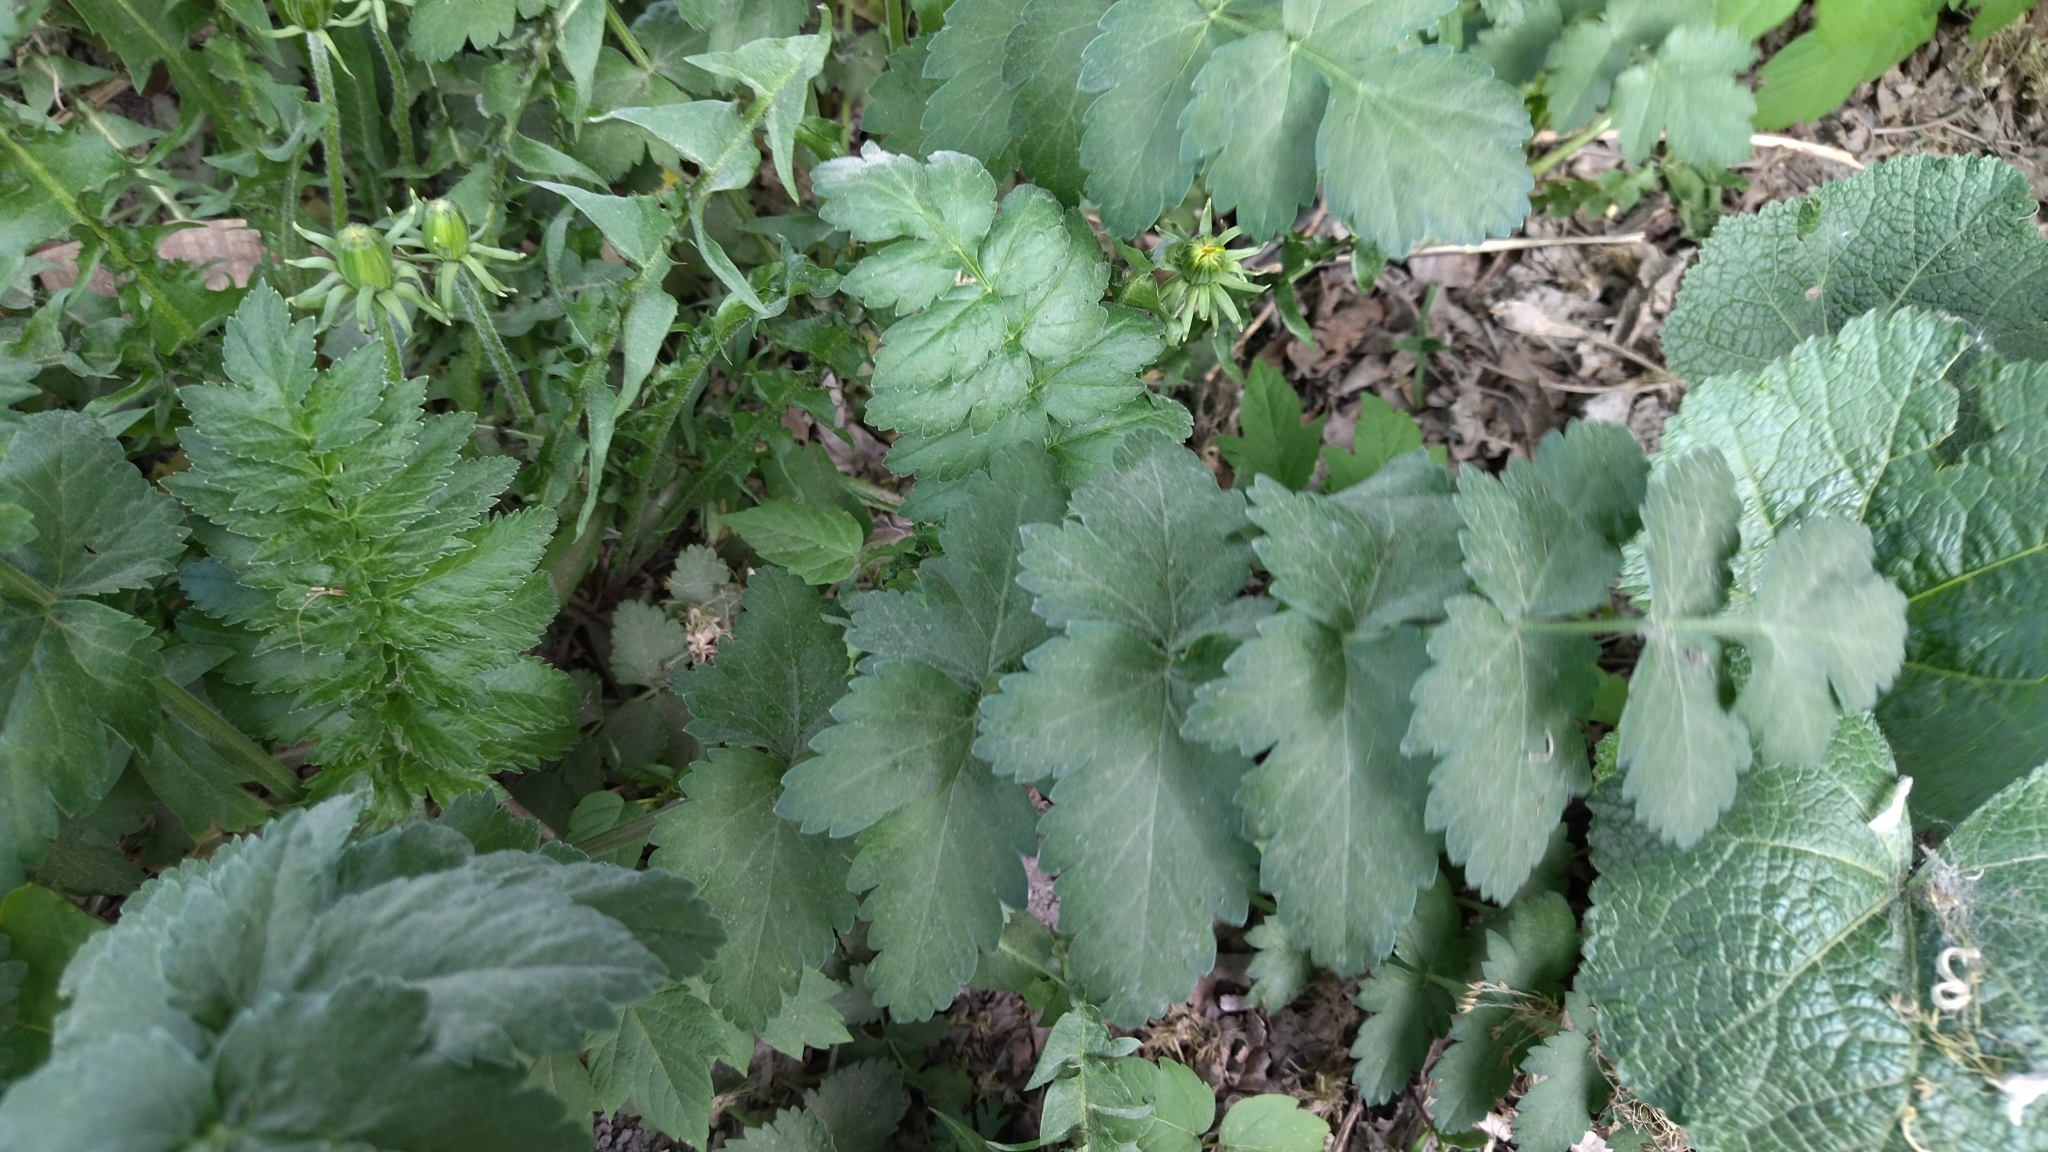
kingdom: Plantae
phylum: Tracheophyta
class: Magnoliopsida
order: Apiales
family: Apiaceae
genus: Pimpinella
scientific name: Pimpinella saxifraga
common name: Burnet-saxifrage
